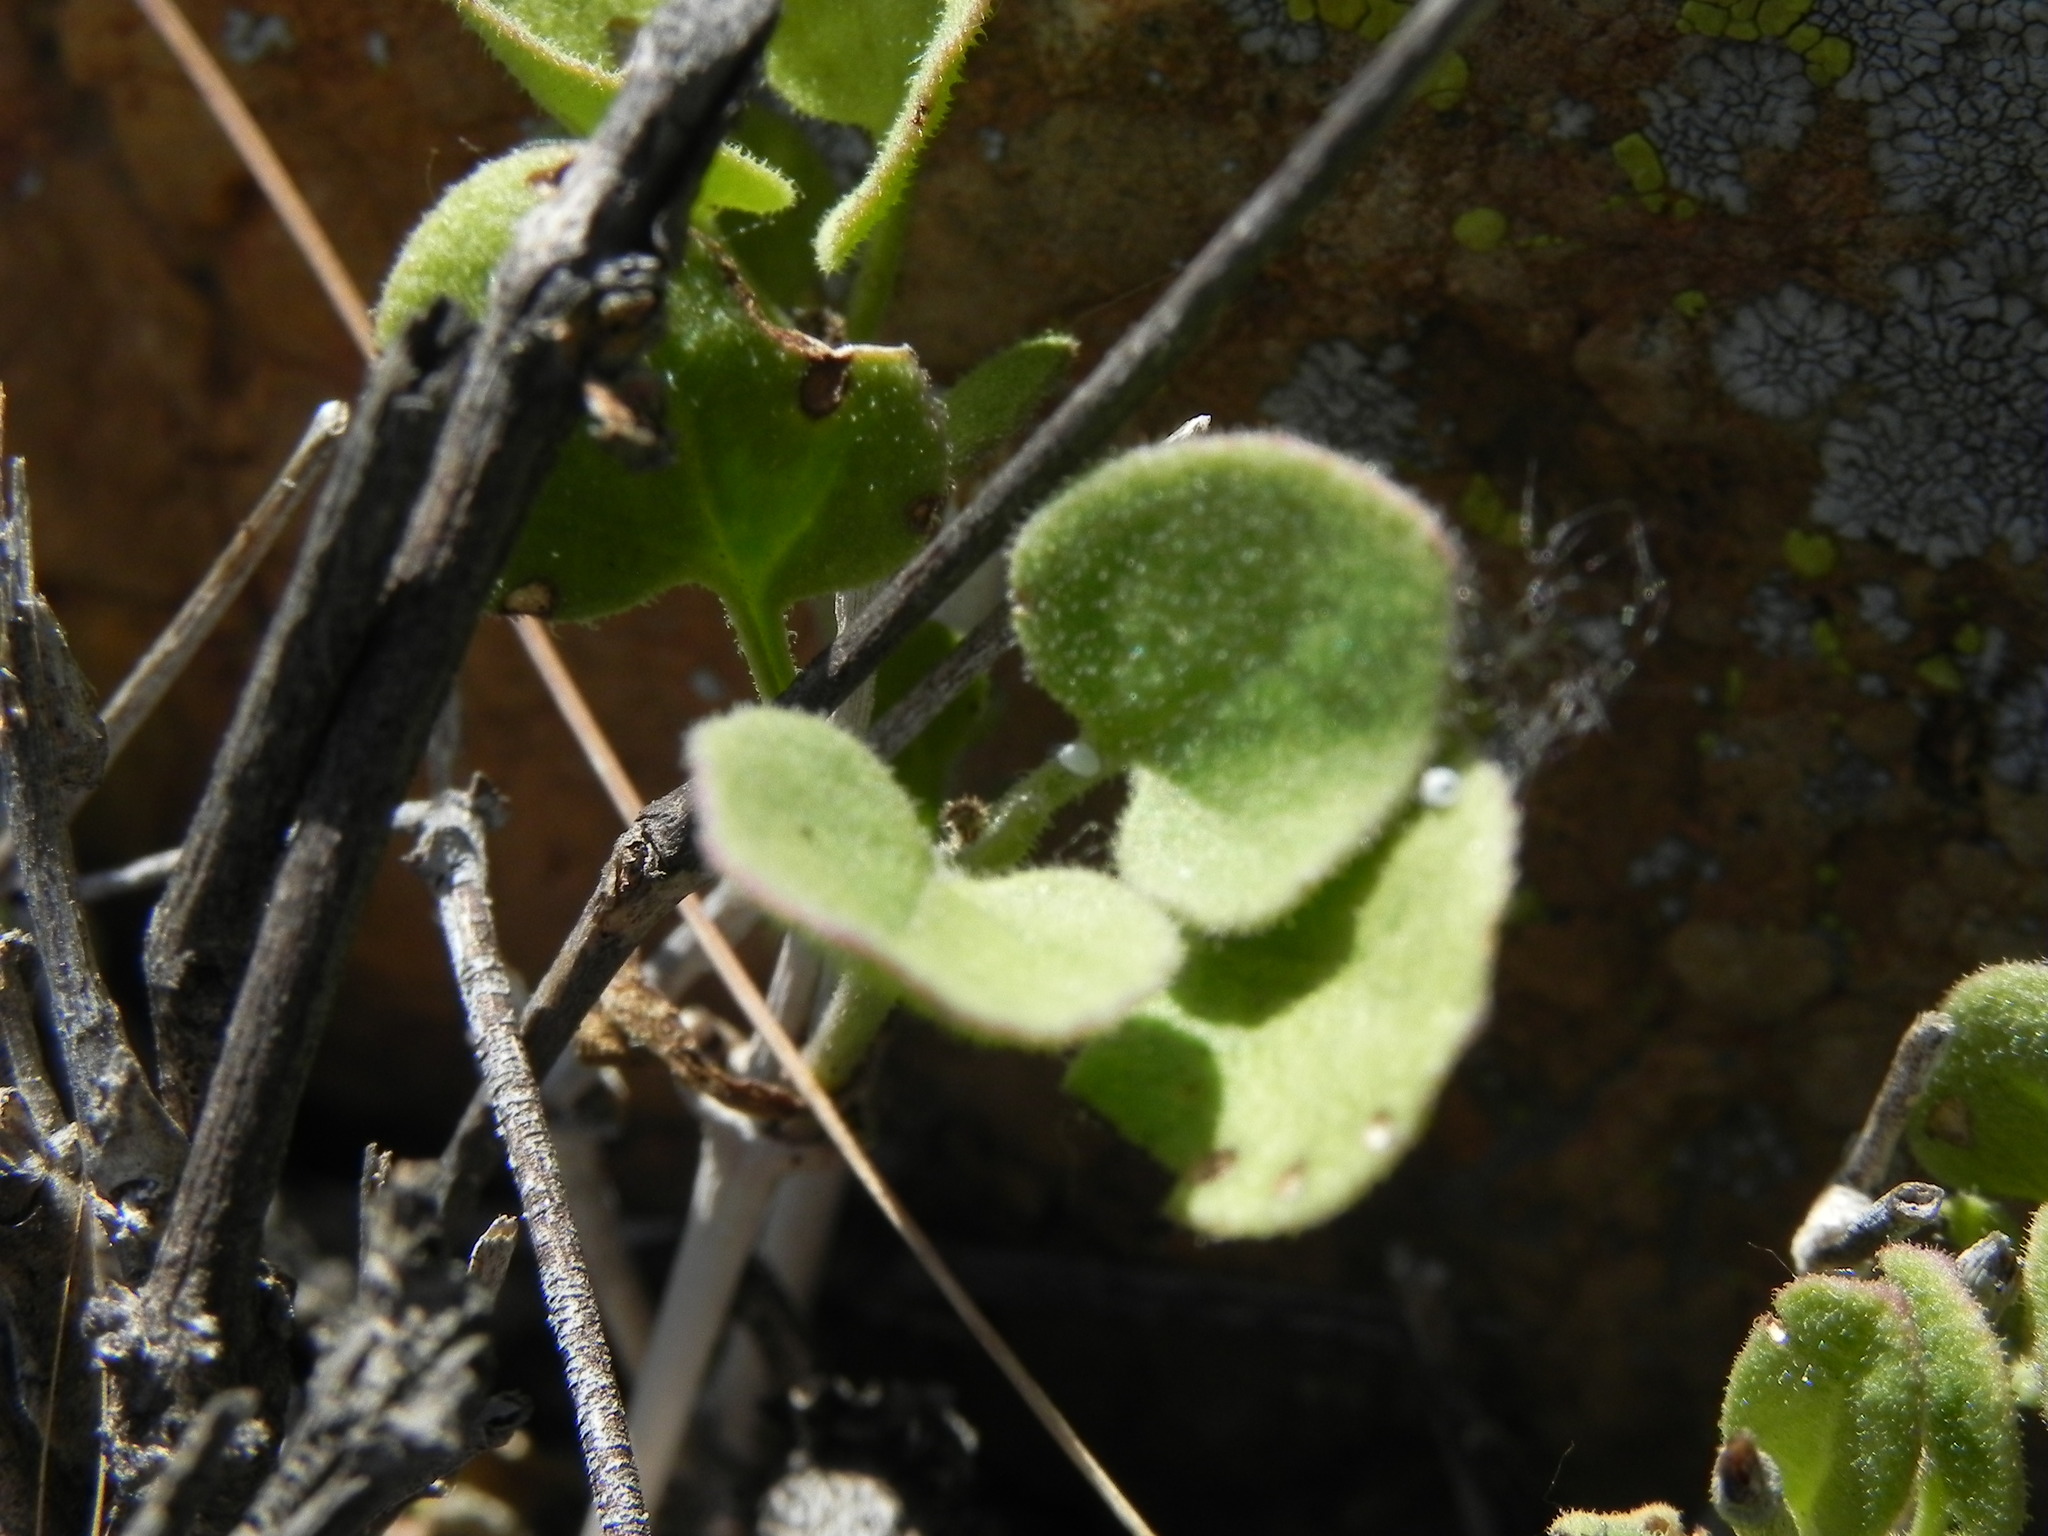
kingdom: Plantae
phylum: Tracheophyta
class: Magnoliopsida
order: Caryophyllales
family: Nyctaginaceae
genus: Mirabilis
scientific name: Mirabilis laevis
